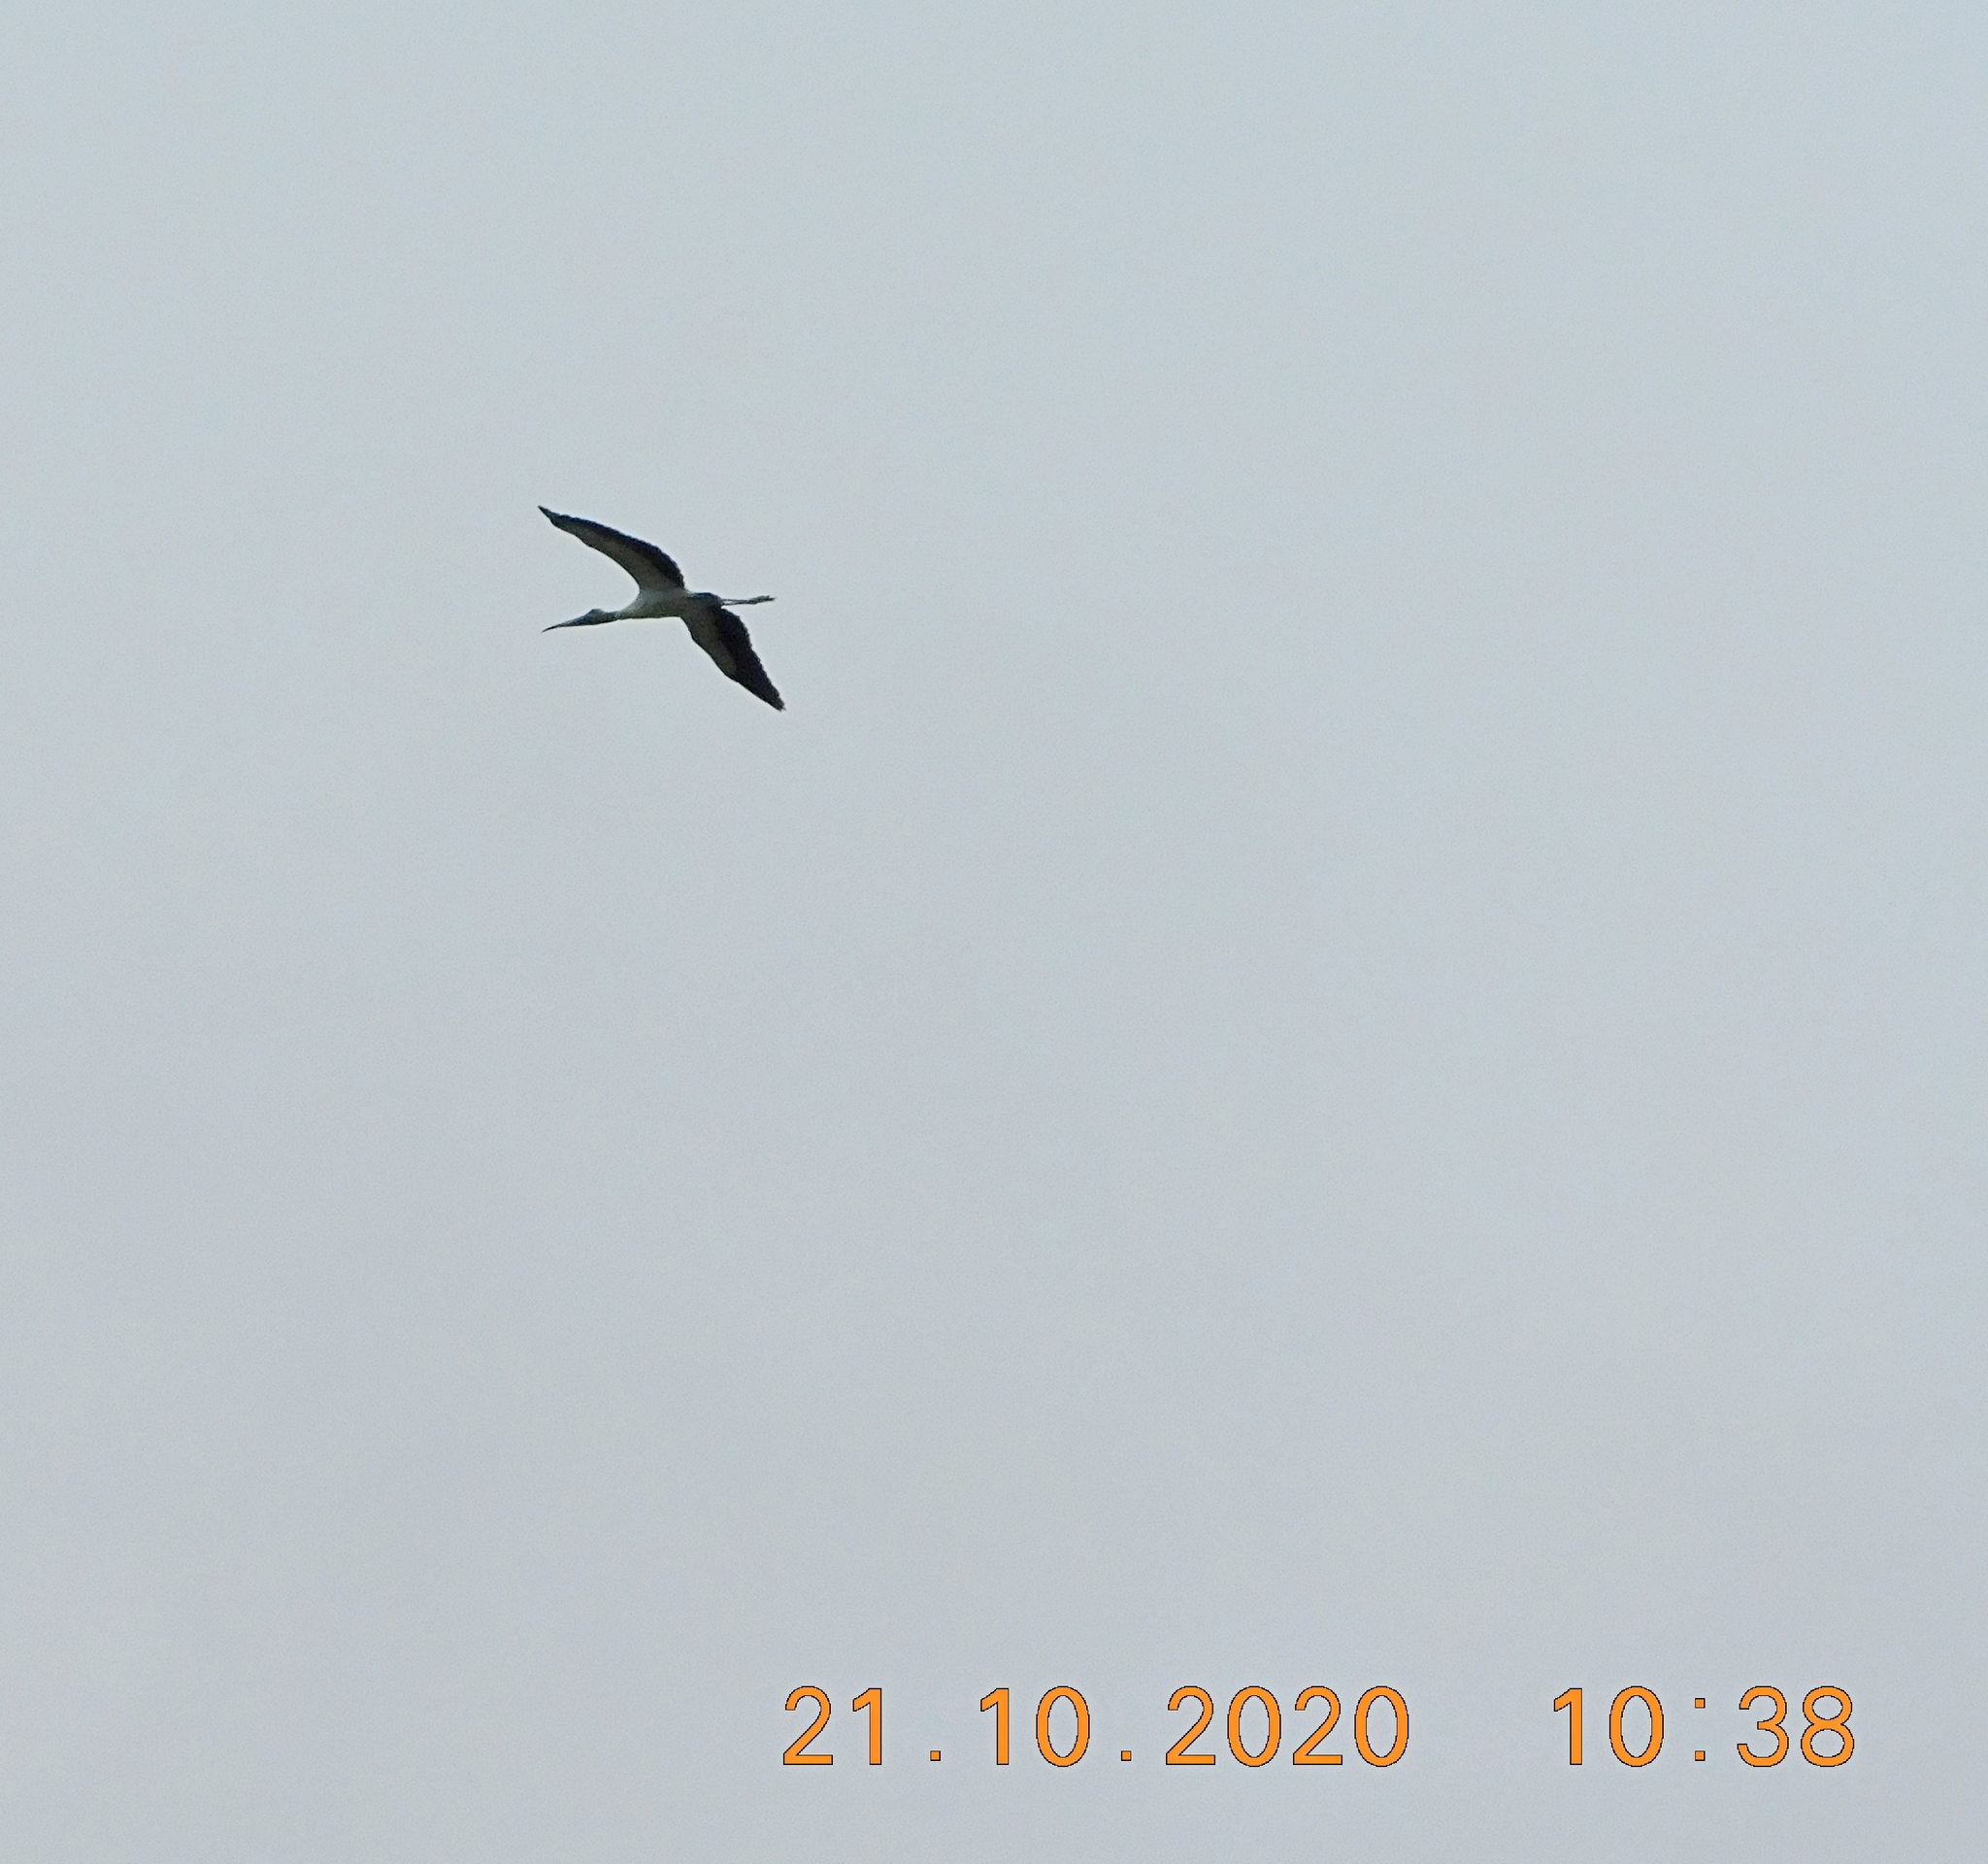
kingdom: Animalia
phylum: Chordata
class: Aves
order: Ciconiiformes
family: Ciconiidae
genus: Mycteria
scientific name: Mycteria americana
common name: Wood stork
